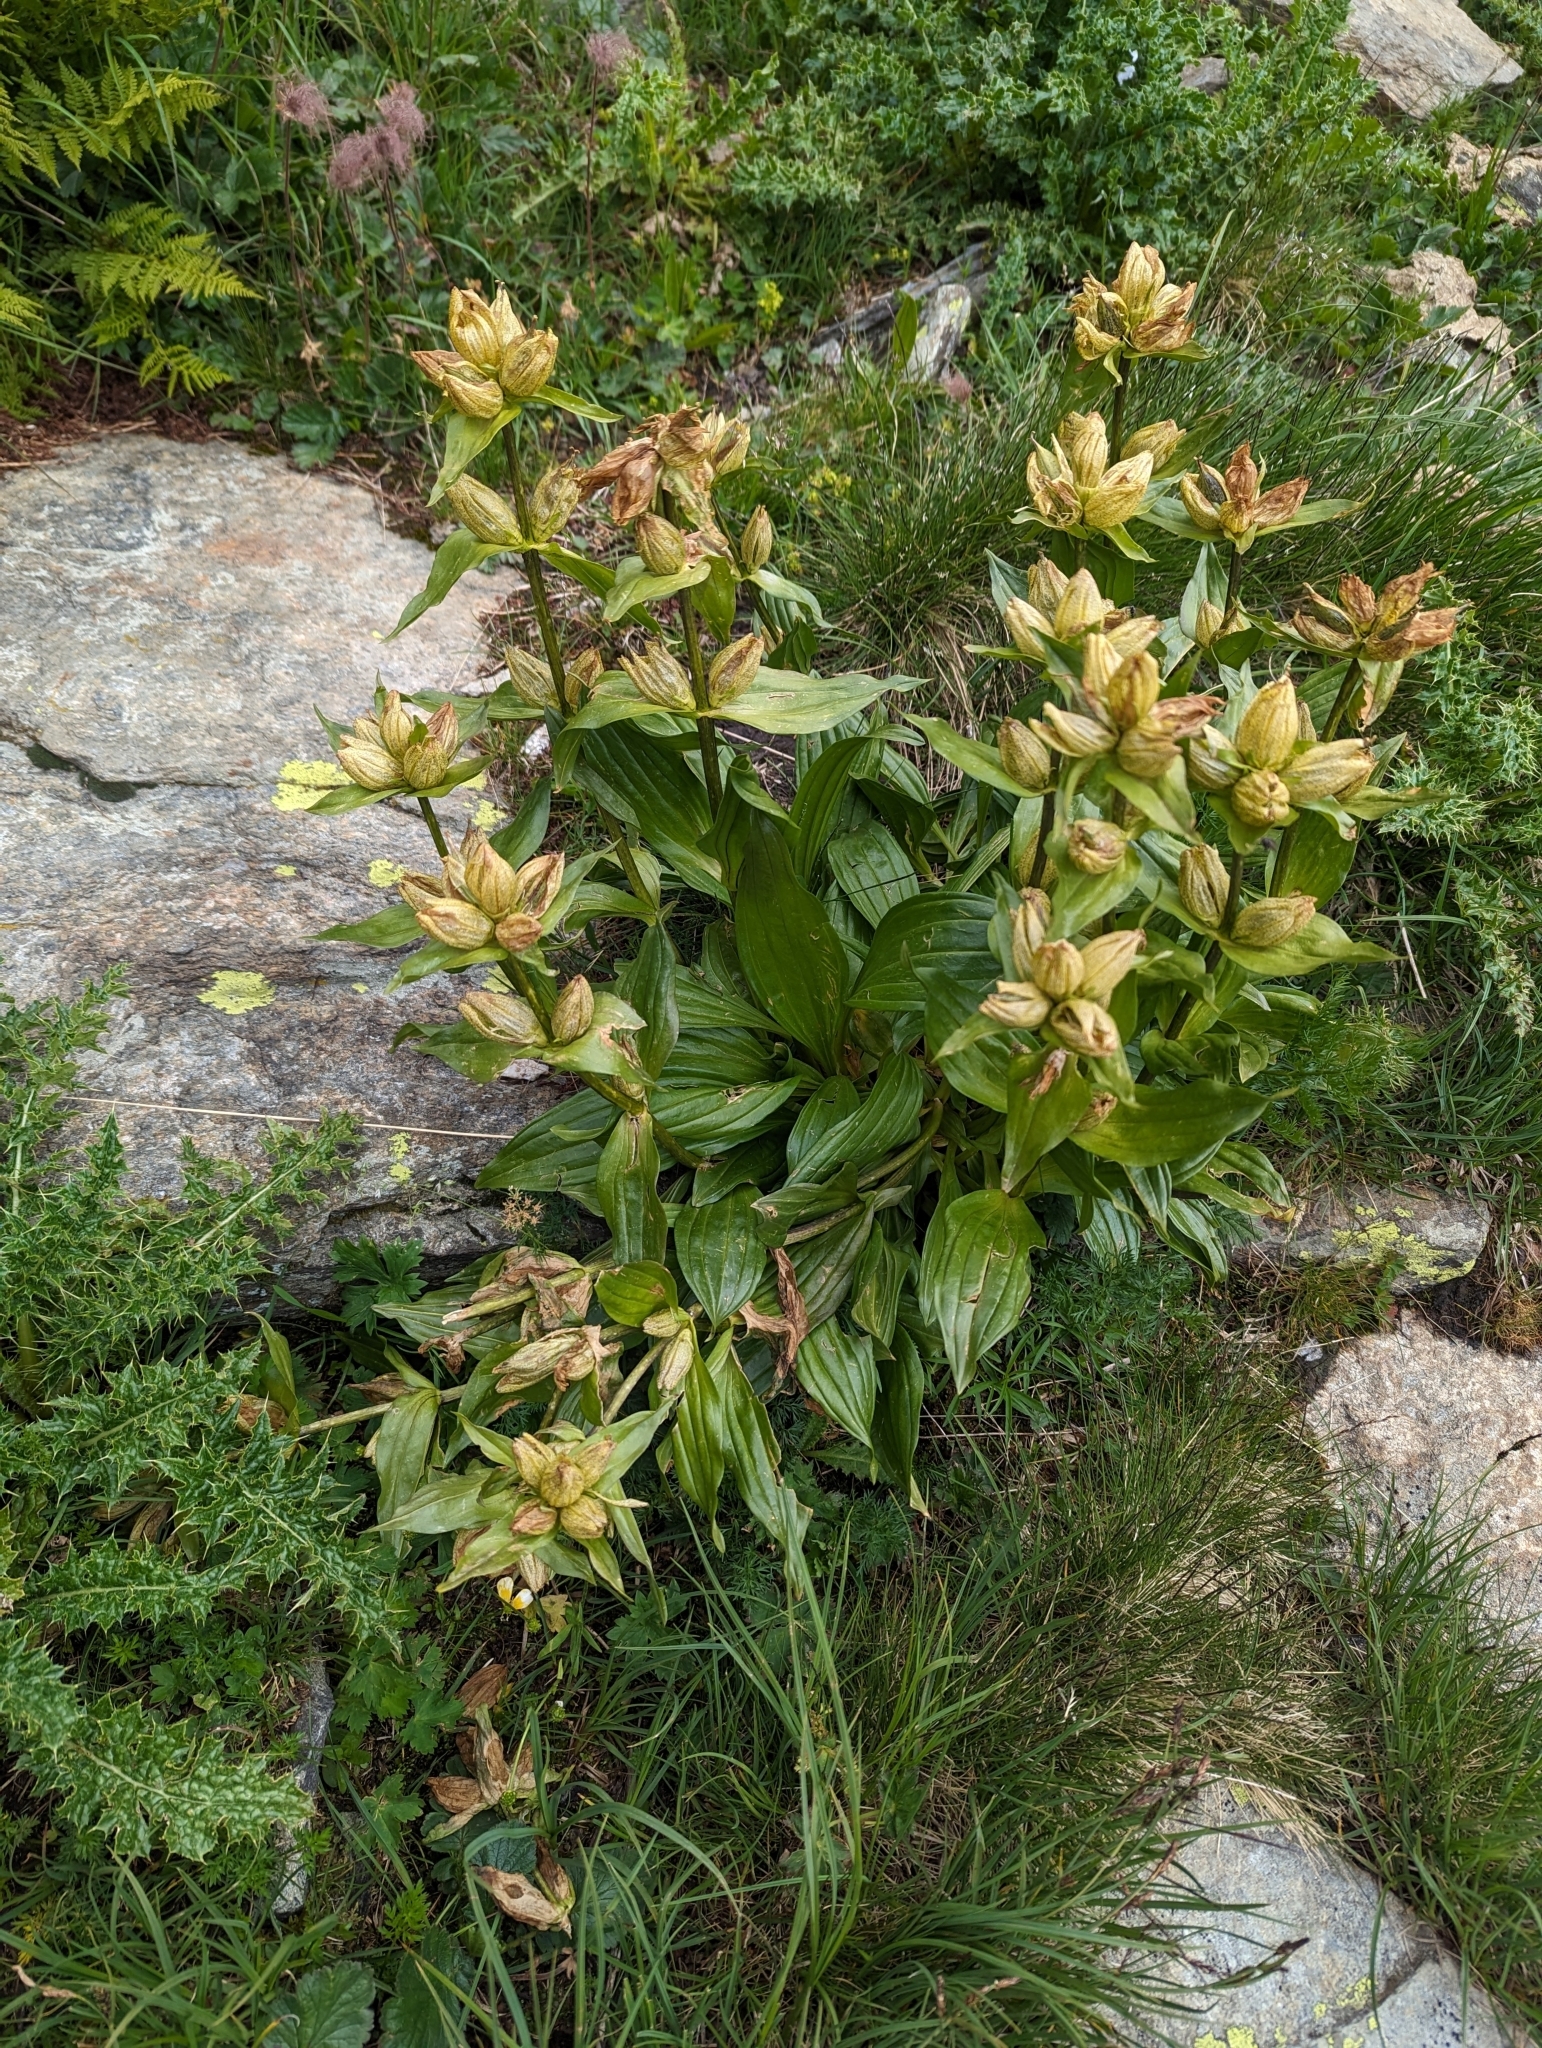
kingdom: Plantae
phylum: Tracheophyta
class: Magnoliopsida
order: Gentianales
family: Gentianaceae
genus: Gentiana
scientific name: Gentiana punctata
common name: Spotted gentian
